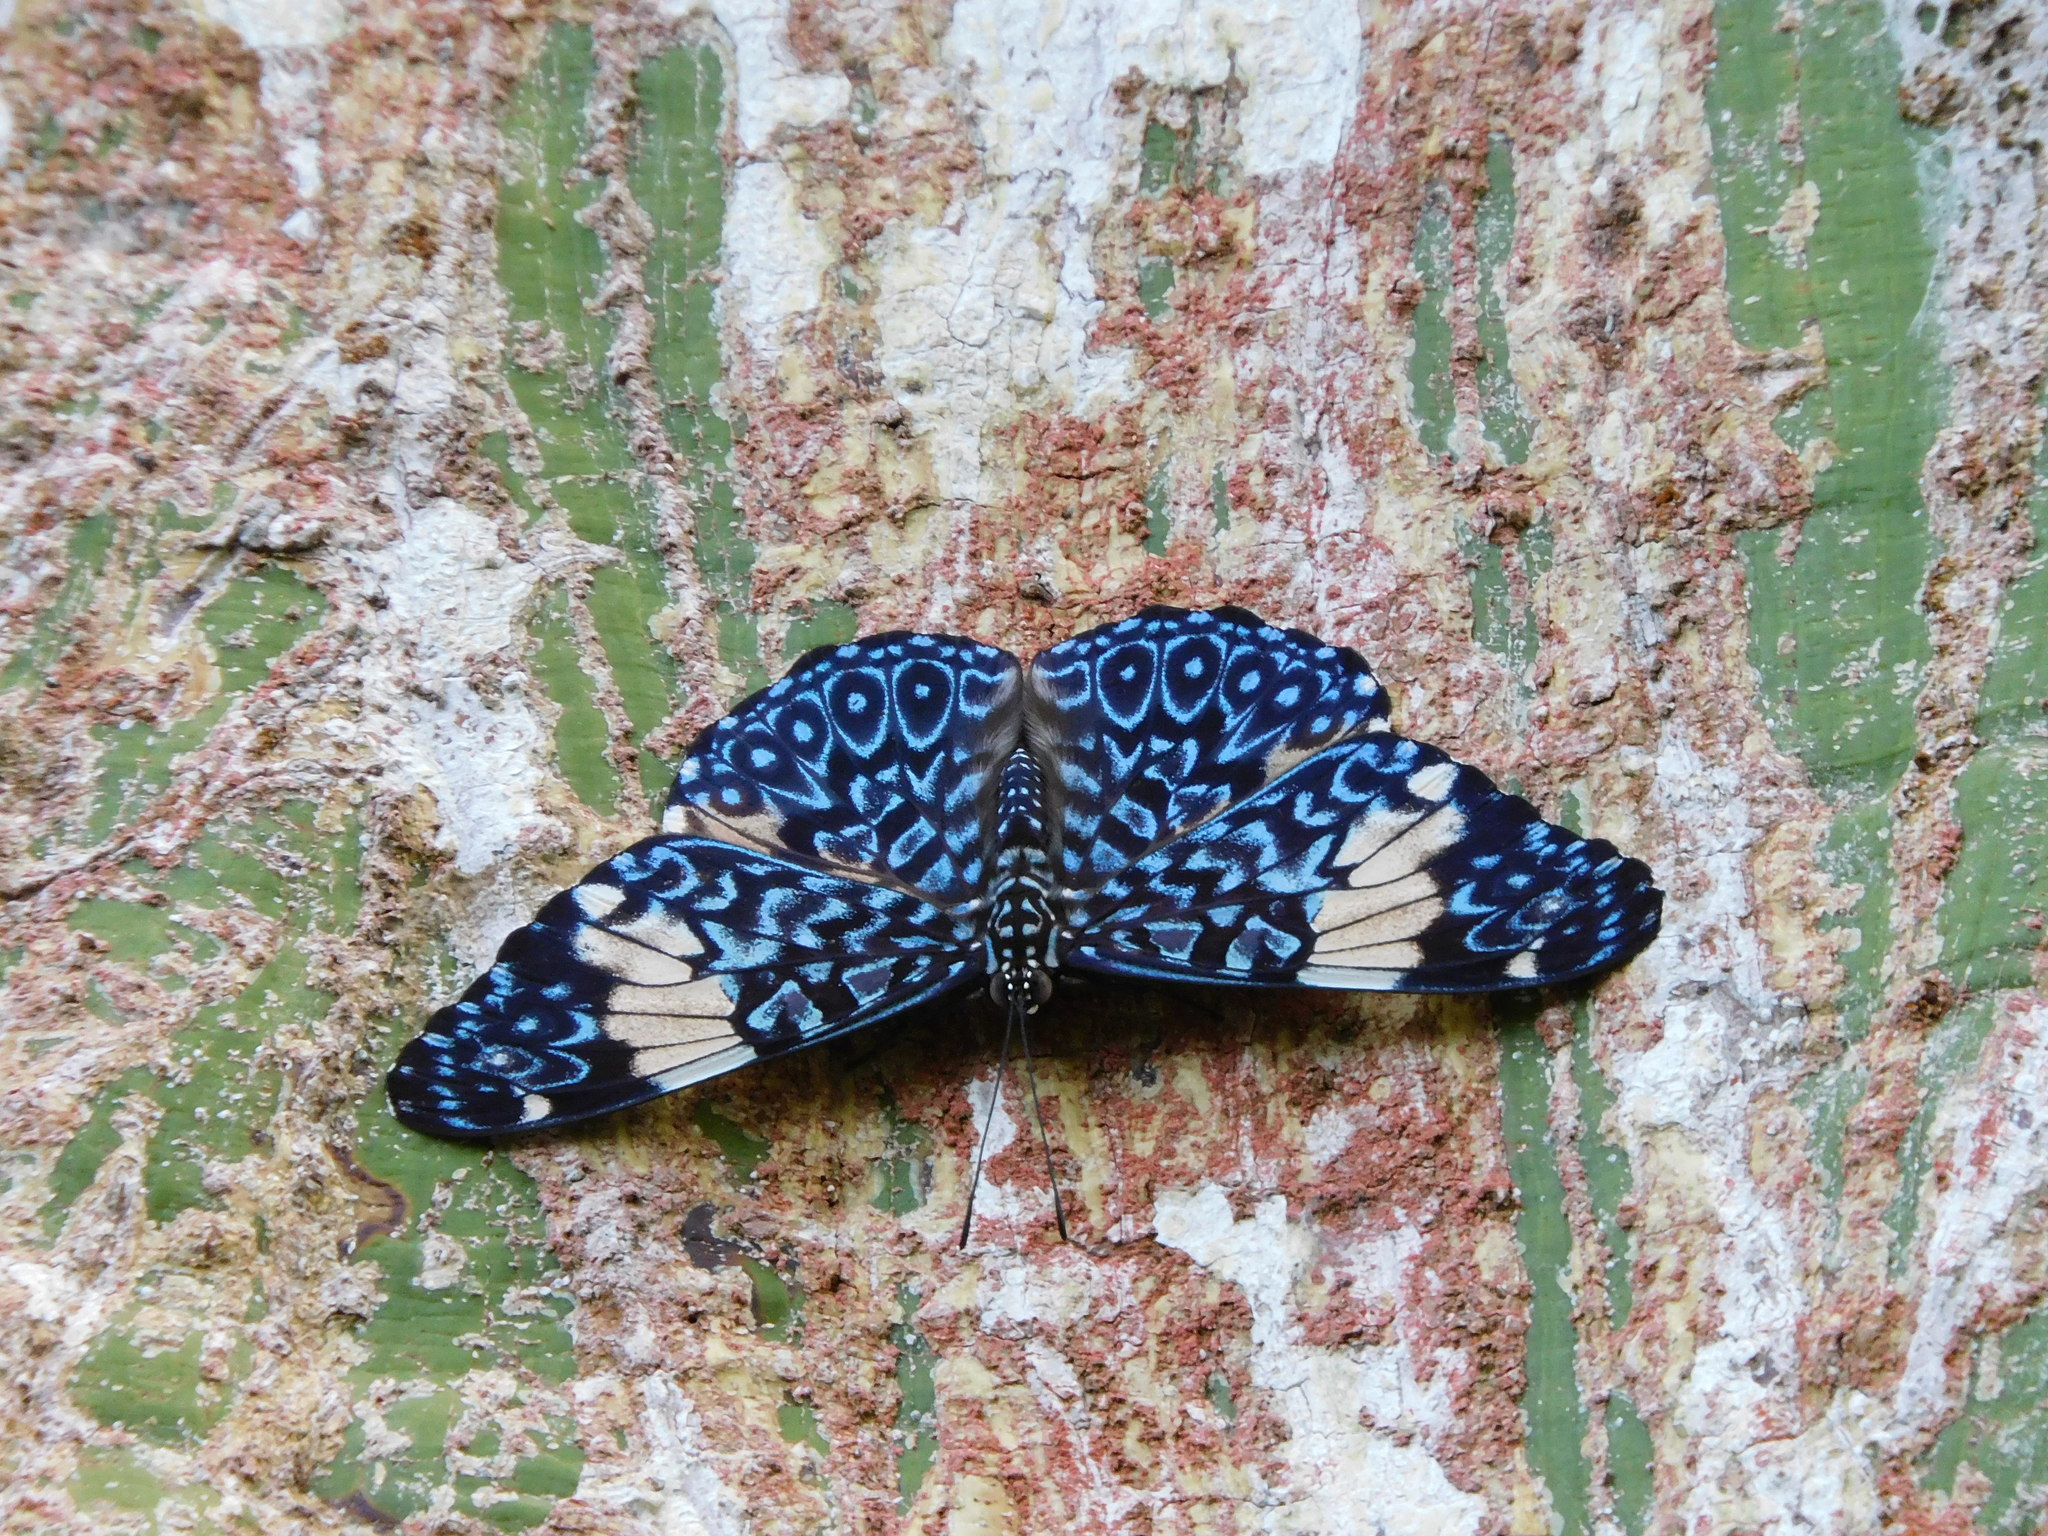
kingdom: Animalia
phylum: Arthropoda
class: Insecta
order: Lepidoptera
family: Nymphalidae
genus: Hamadryas
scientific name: Hamadryas amphinome
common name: Red cracker
